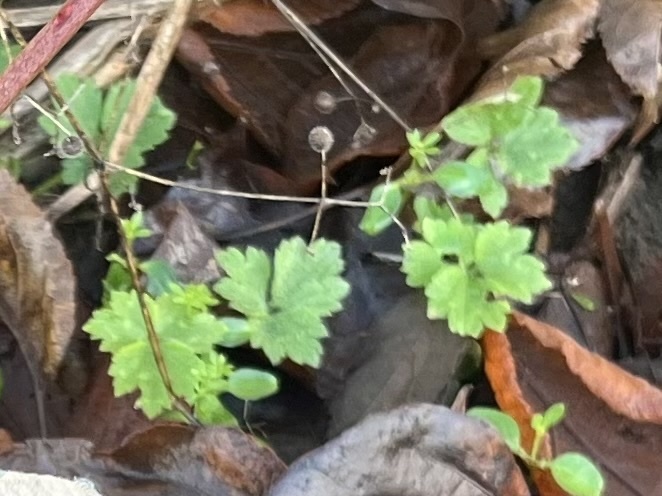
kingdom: Plantae
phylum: Tracheophyta
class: Magnoliopsida
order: Ranunculales
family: Ranunculaceae
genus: Ranunculus
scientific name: Ranunculus repens
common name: Creeping buttercup
